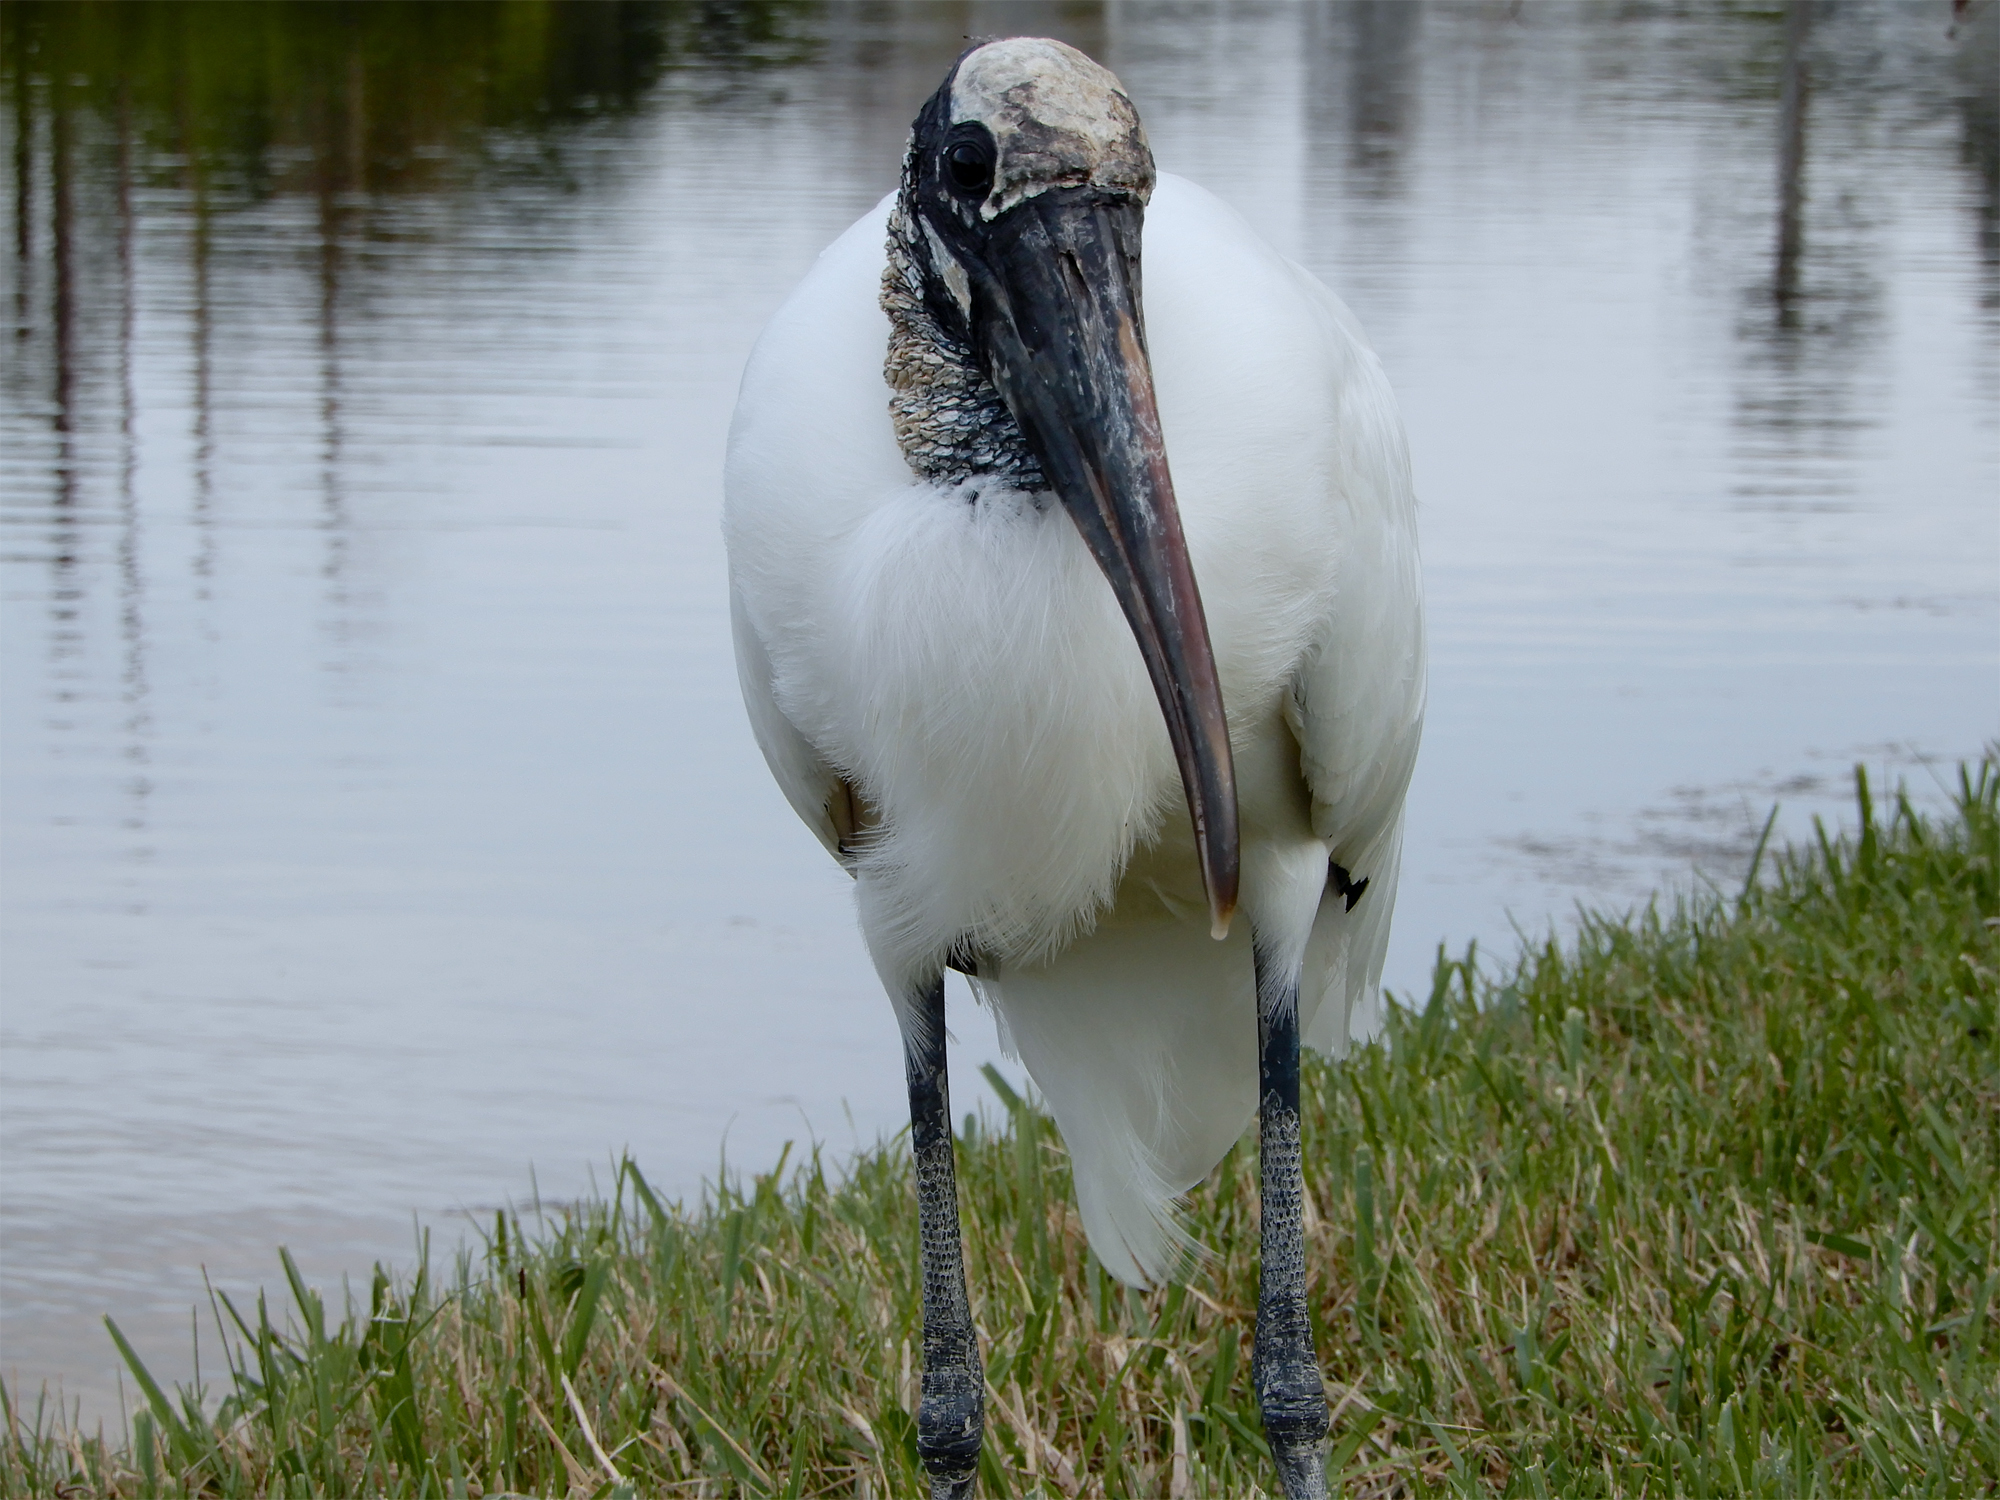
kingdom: Animalia
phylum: Chordata
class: Aves
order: Ciconiiformes
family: Ciconiidae
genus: Mycteria
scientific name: Mycteria americana
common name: Wood stork
